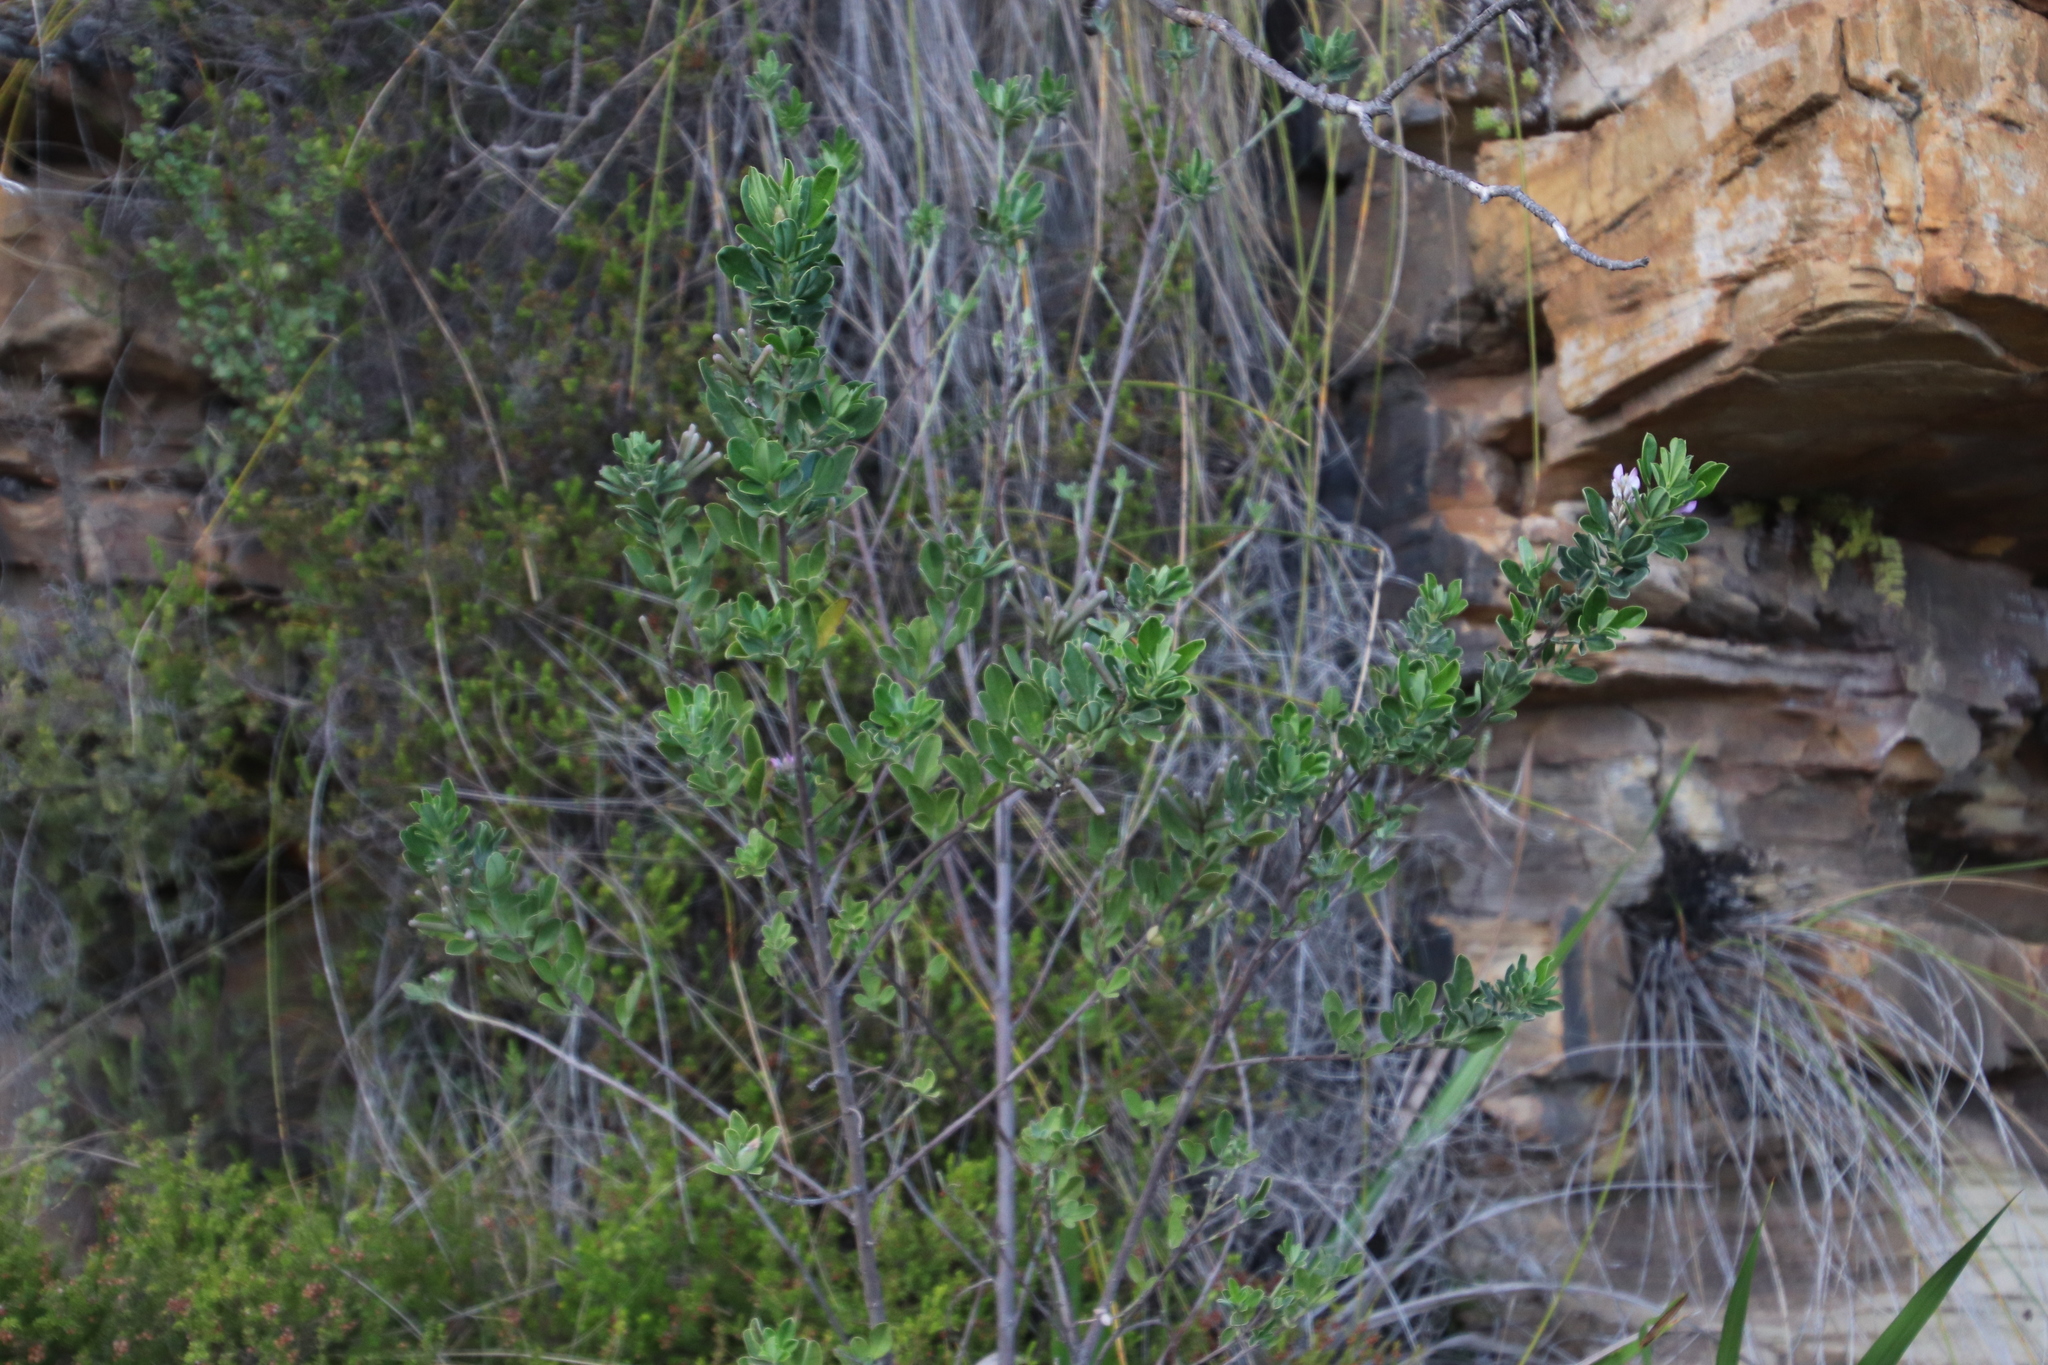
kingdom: Plantae
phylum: Tracheophyta
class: Magnoliopsida
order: Fabales
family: Fabaceae
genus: Indigofera
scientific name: Indigofera cytisoides
